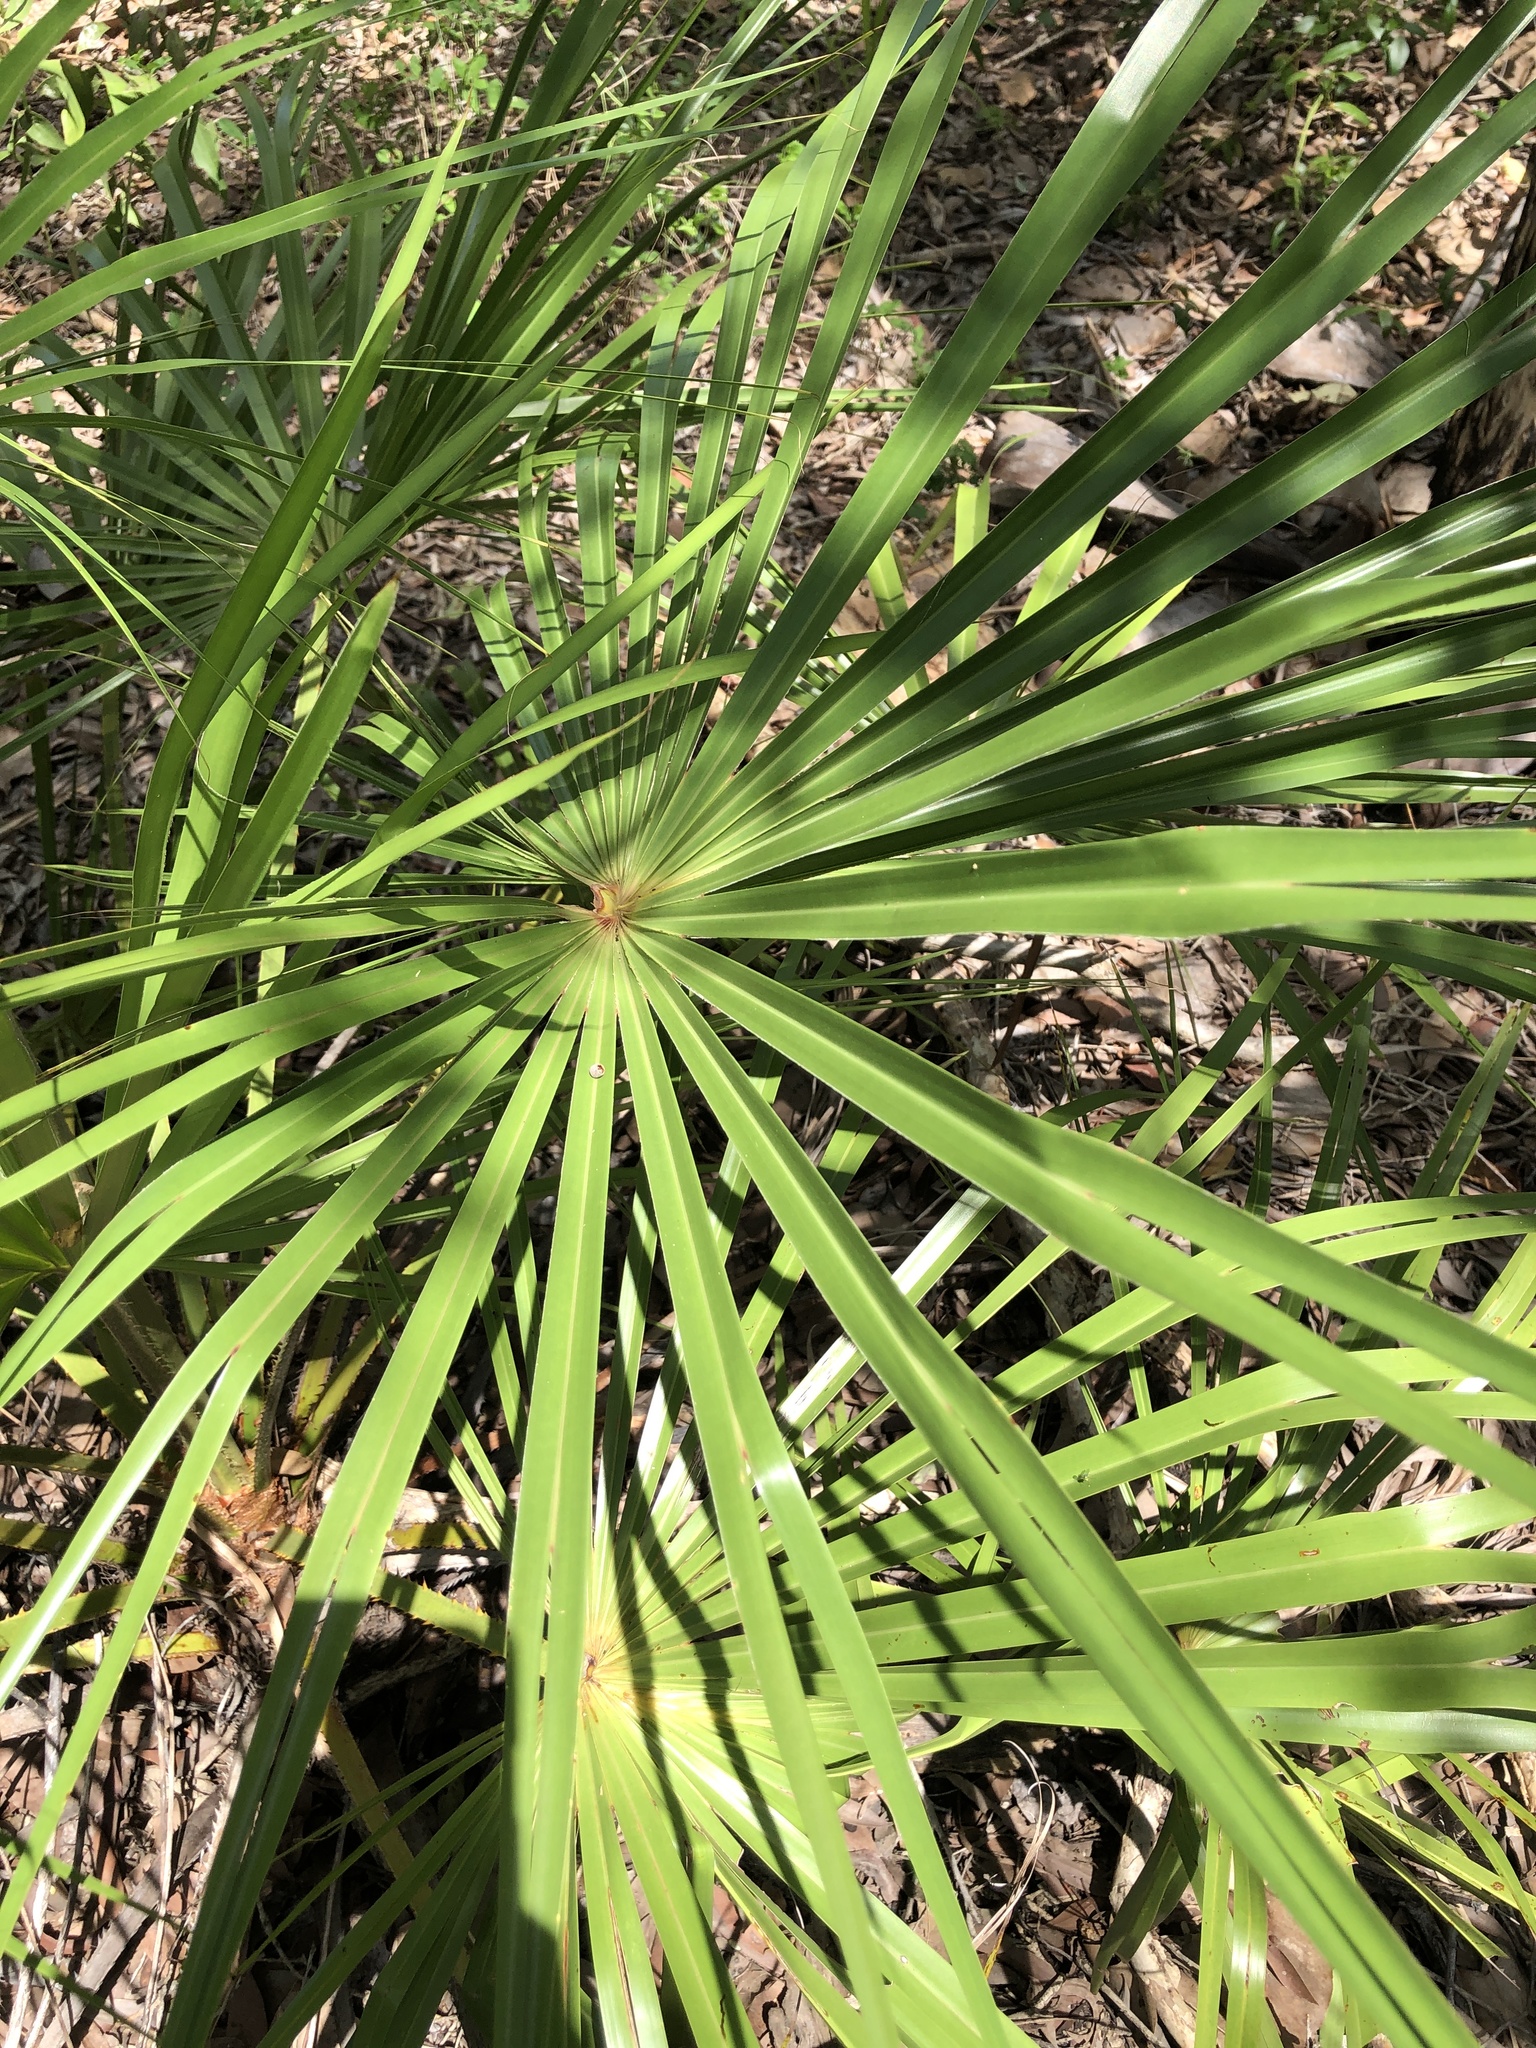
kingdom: Plantae
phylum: Tracheophyta
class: Liliopsida
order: Arecales
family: Arecaceae
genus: Livistona
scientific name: Livistona decora
